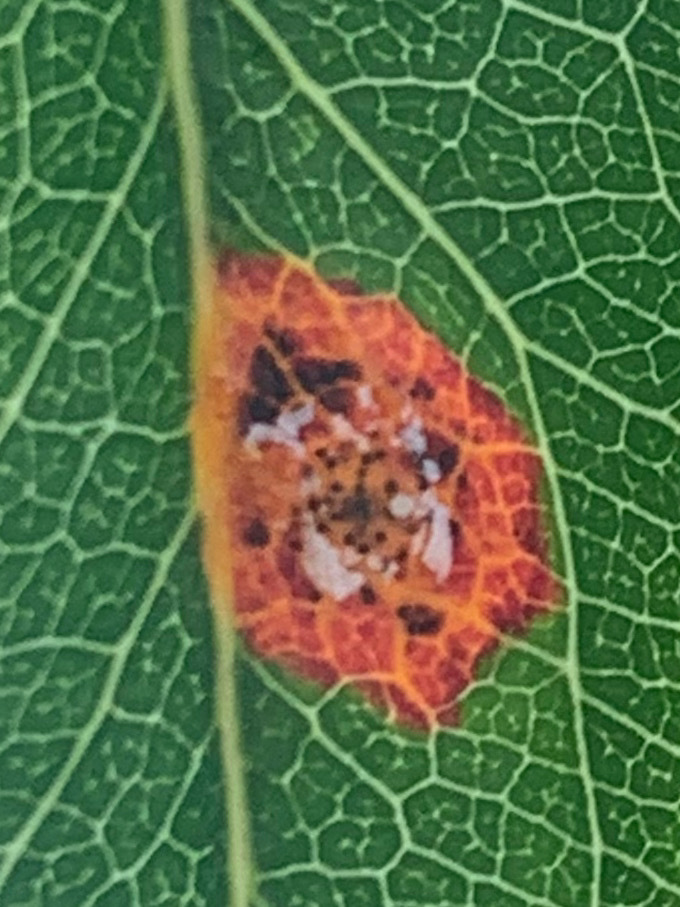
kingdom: Fungi
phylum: Basidiomycota
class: Pucciniomycetes
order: Pucciniales
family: Gymnosporangiaceae
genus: Gymnosporangium
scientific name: Gymnosporangium sabinae
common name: Pear trellis rust fungus
